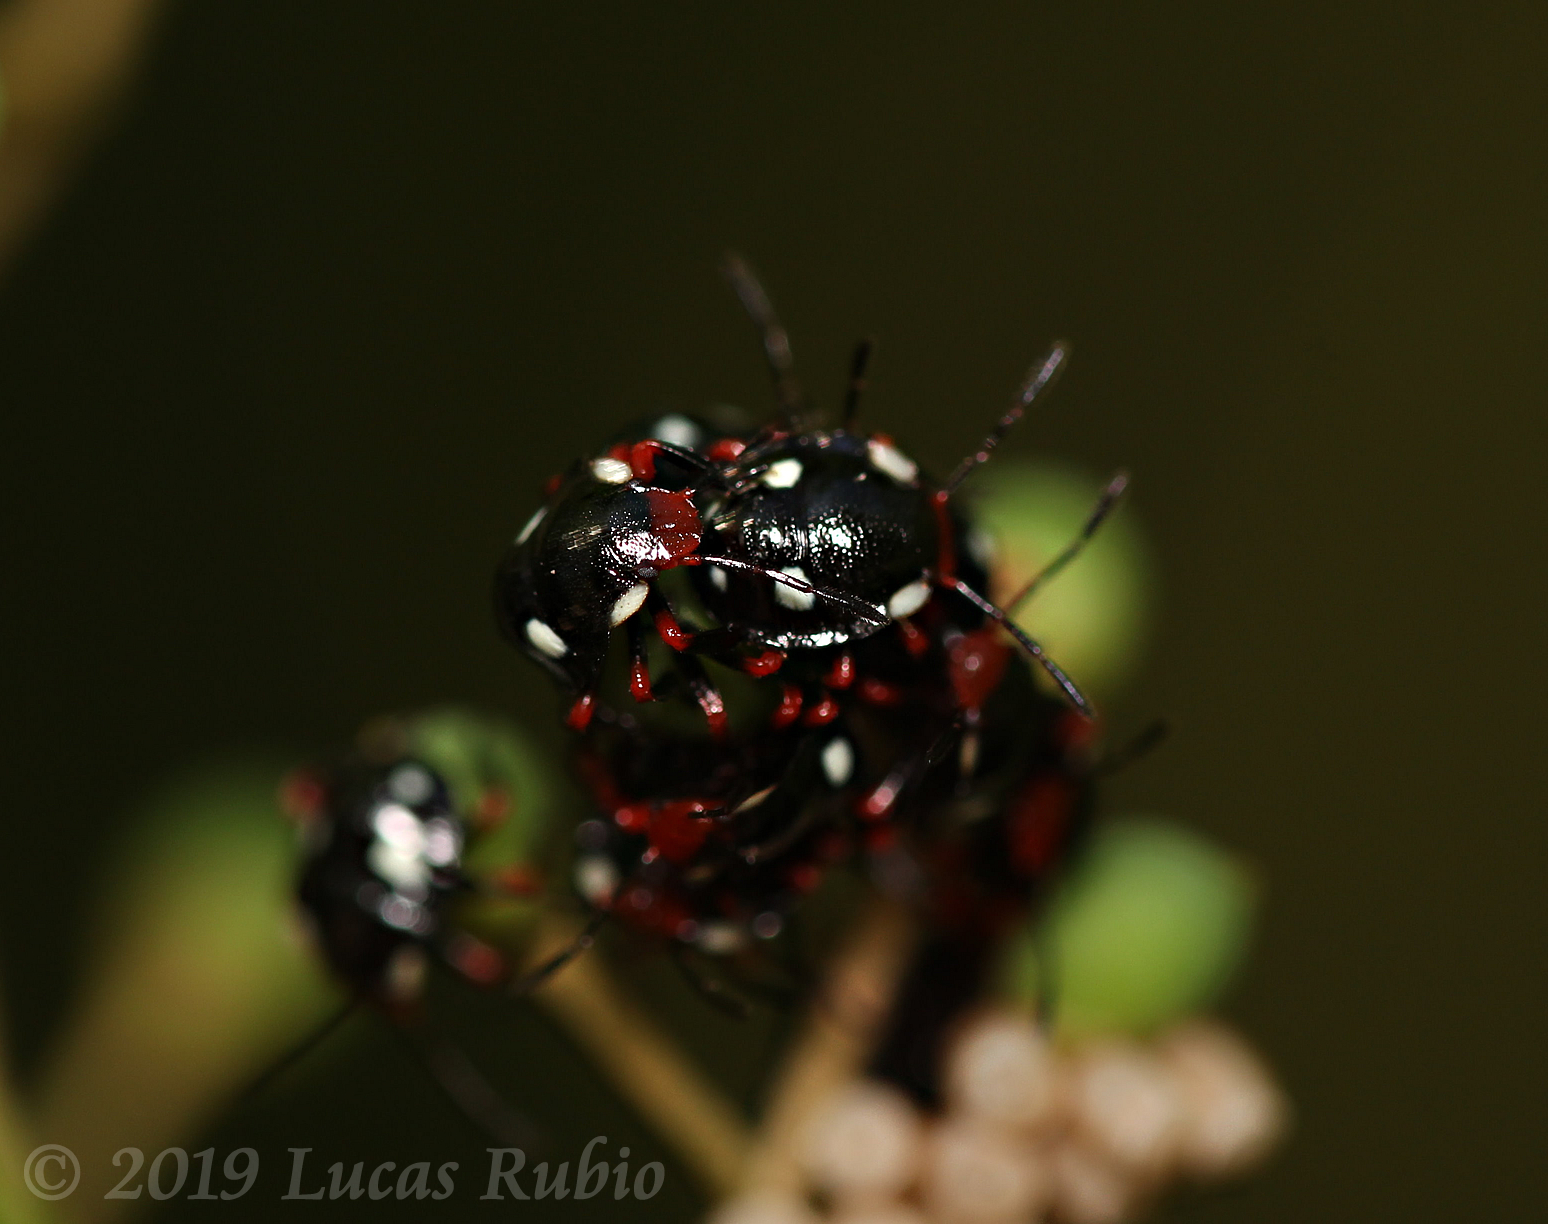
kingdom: Animalia
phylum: Arthropoda
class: Insecta
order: Hemiptera
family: Pentatomidae
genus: Chinavia
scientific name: Chinavia erythrocnemis
